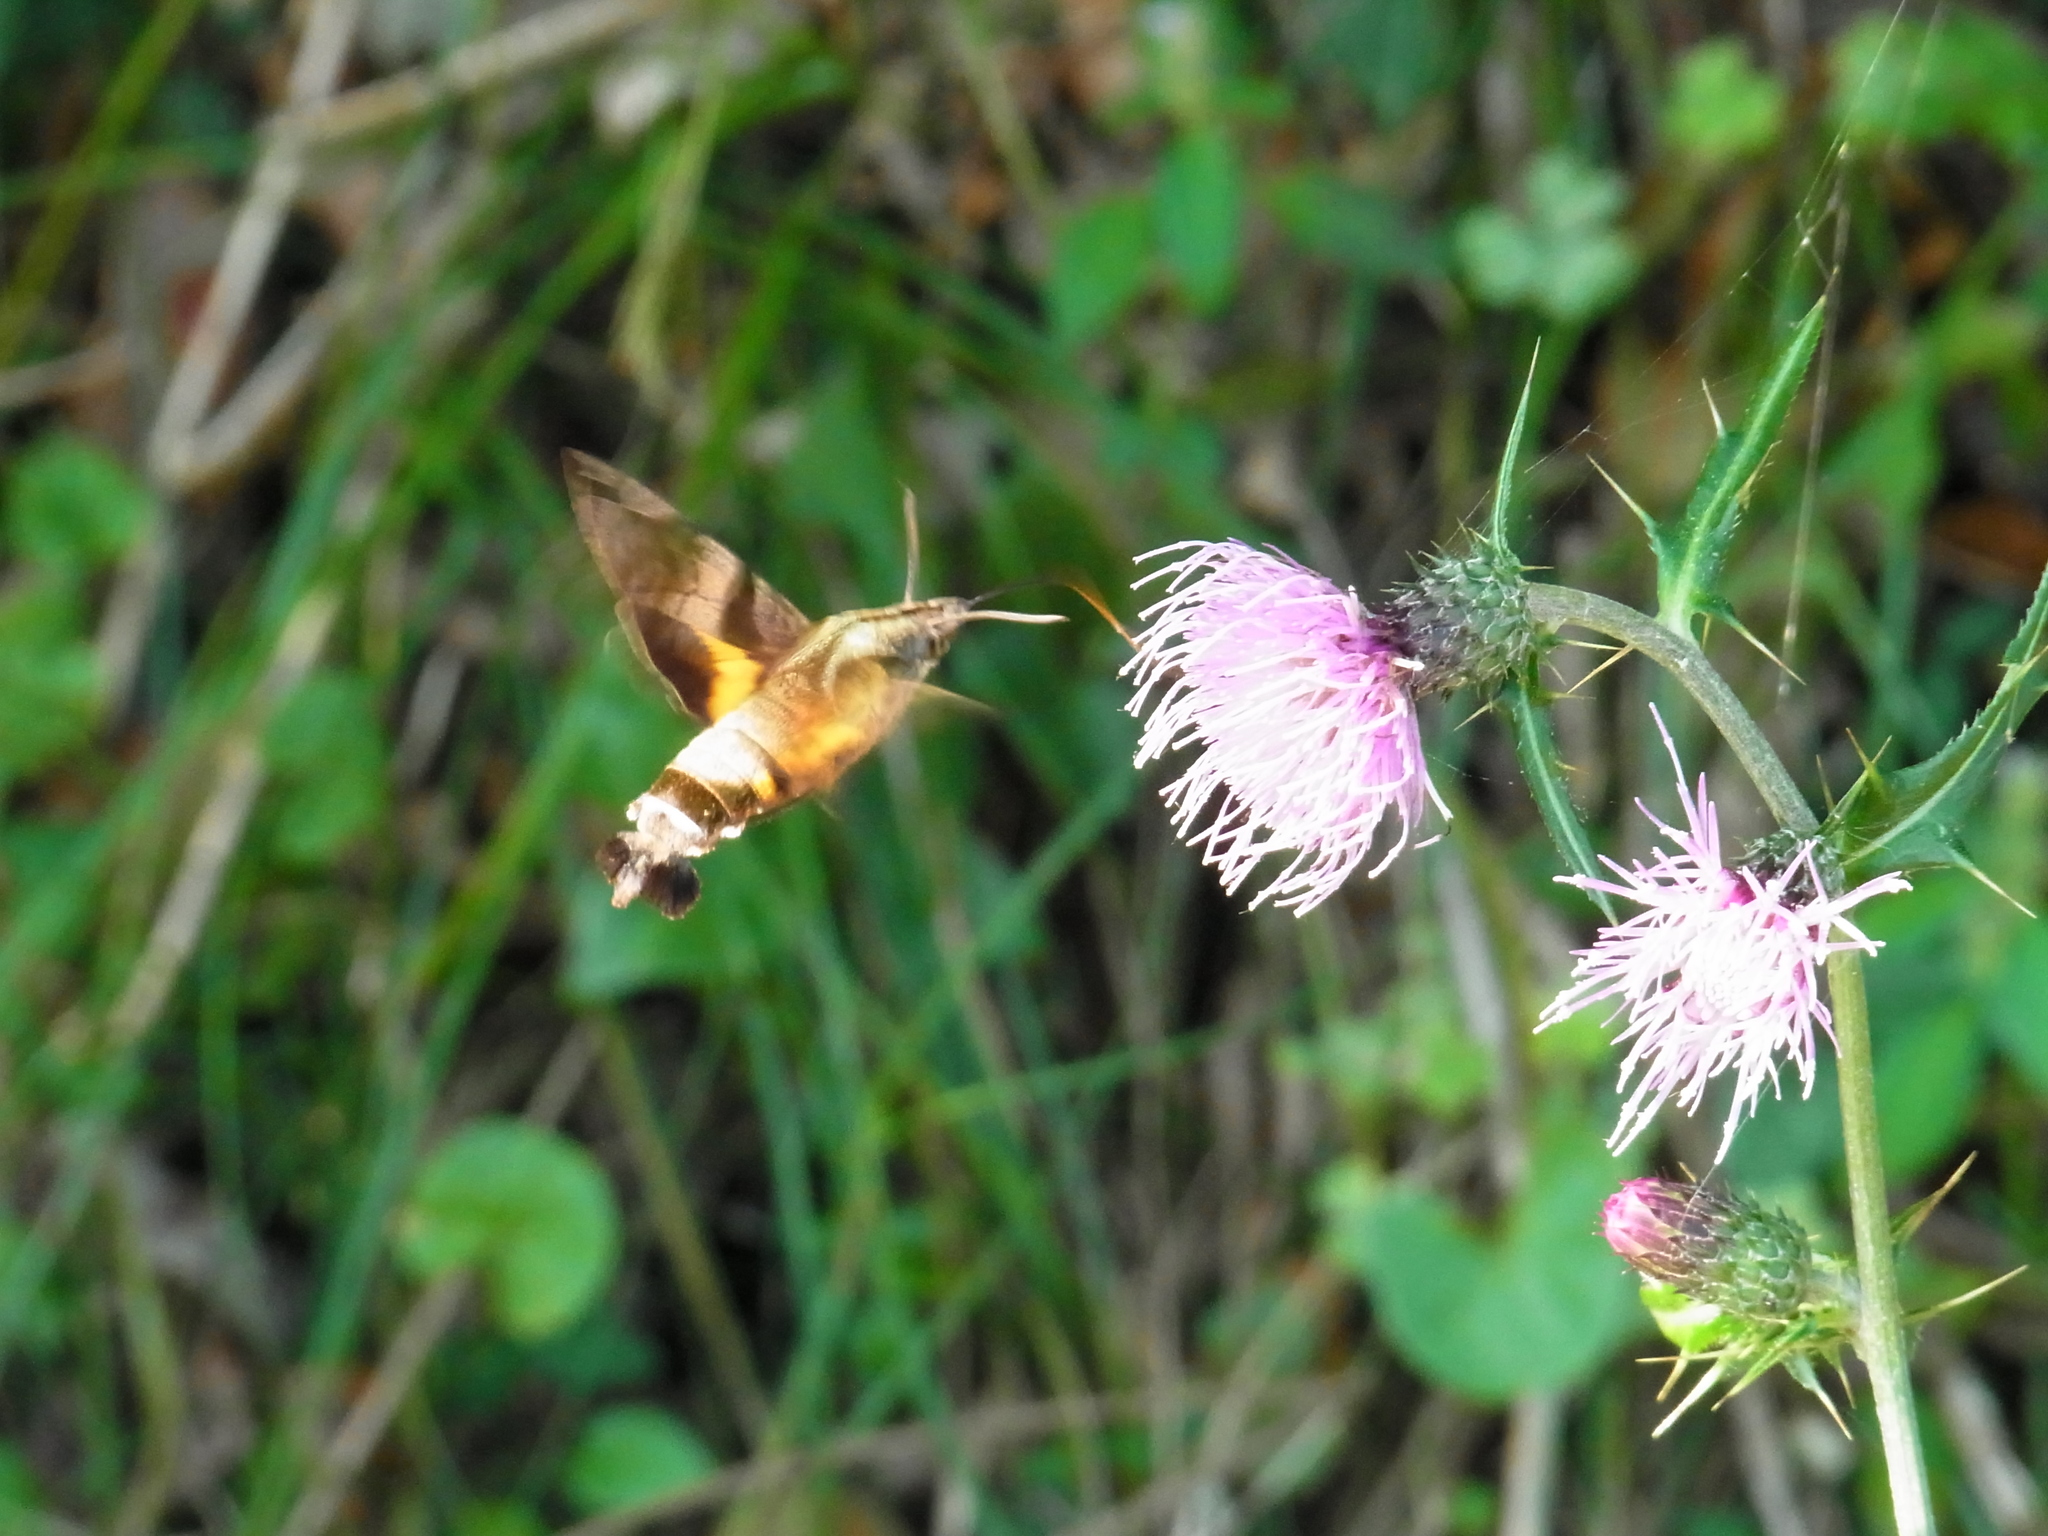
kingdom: Animalia
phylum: Arthropoda
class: Insecta
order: Lepidoptera
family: Sphingidae
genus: Macroglossum
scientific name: Macroglossum pyrrhosticta
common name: Hummingbird hawk moth
